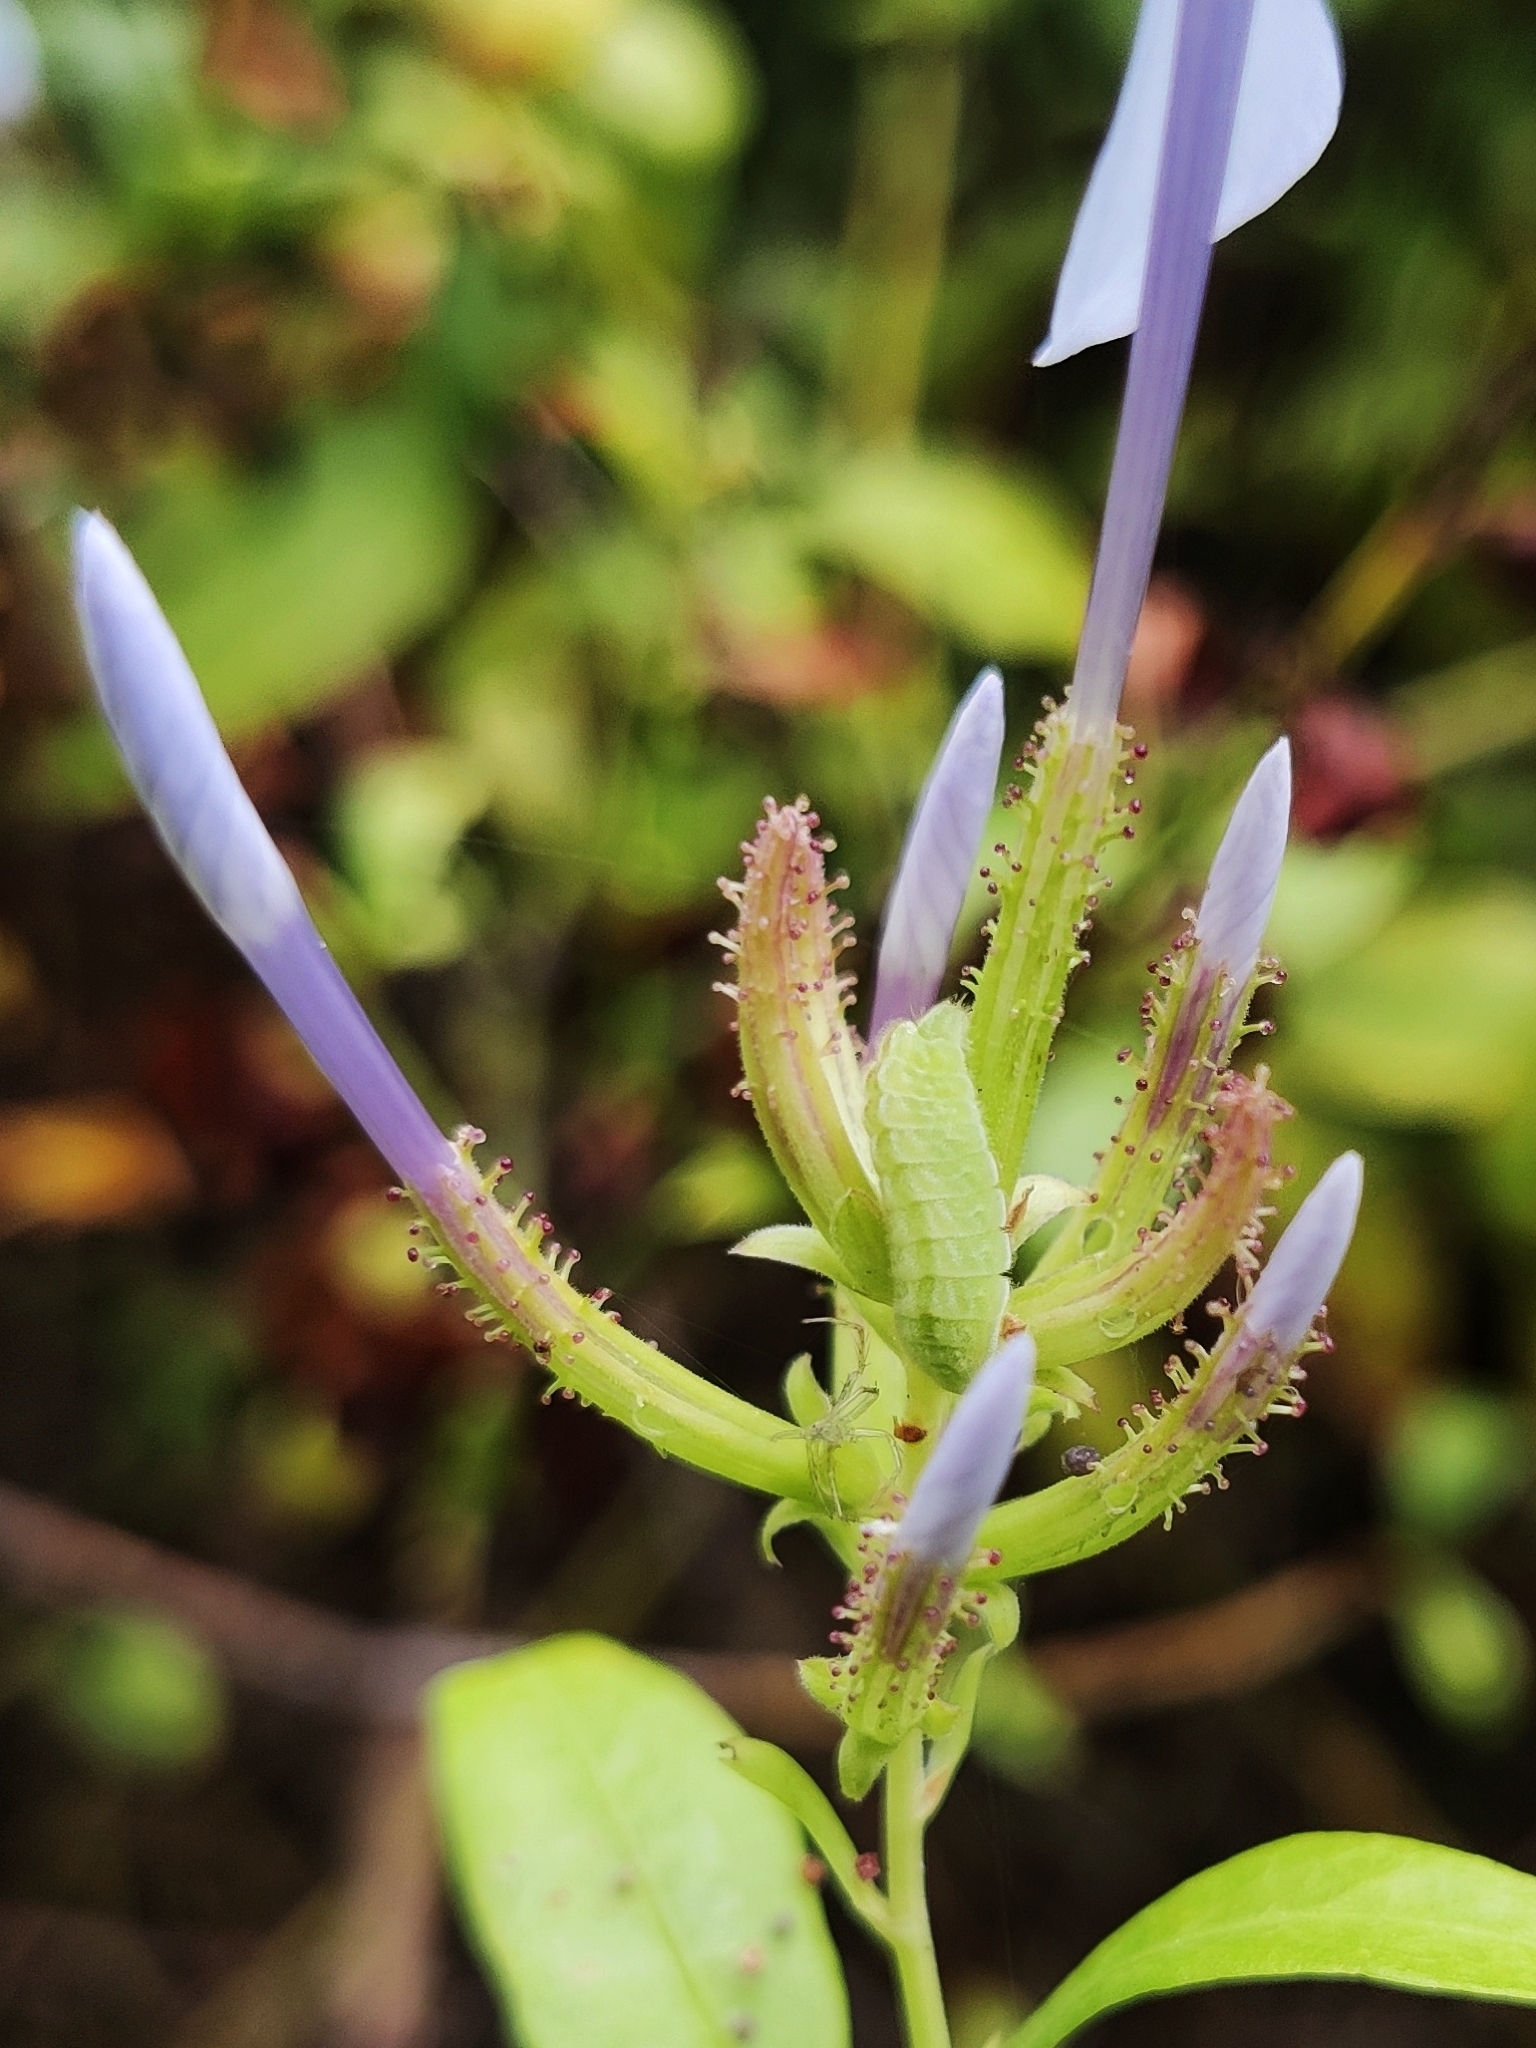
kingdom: Animalia
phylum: Arthropoda
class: Insecta
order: Lepidoptera
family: Lycaenidae
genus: Leptotes
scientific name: Leptotes plinius
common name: Zebra blue
